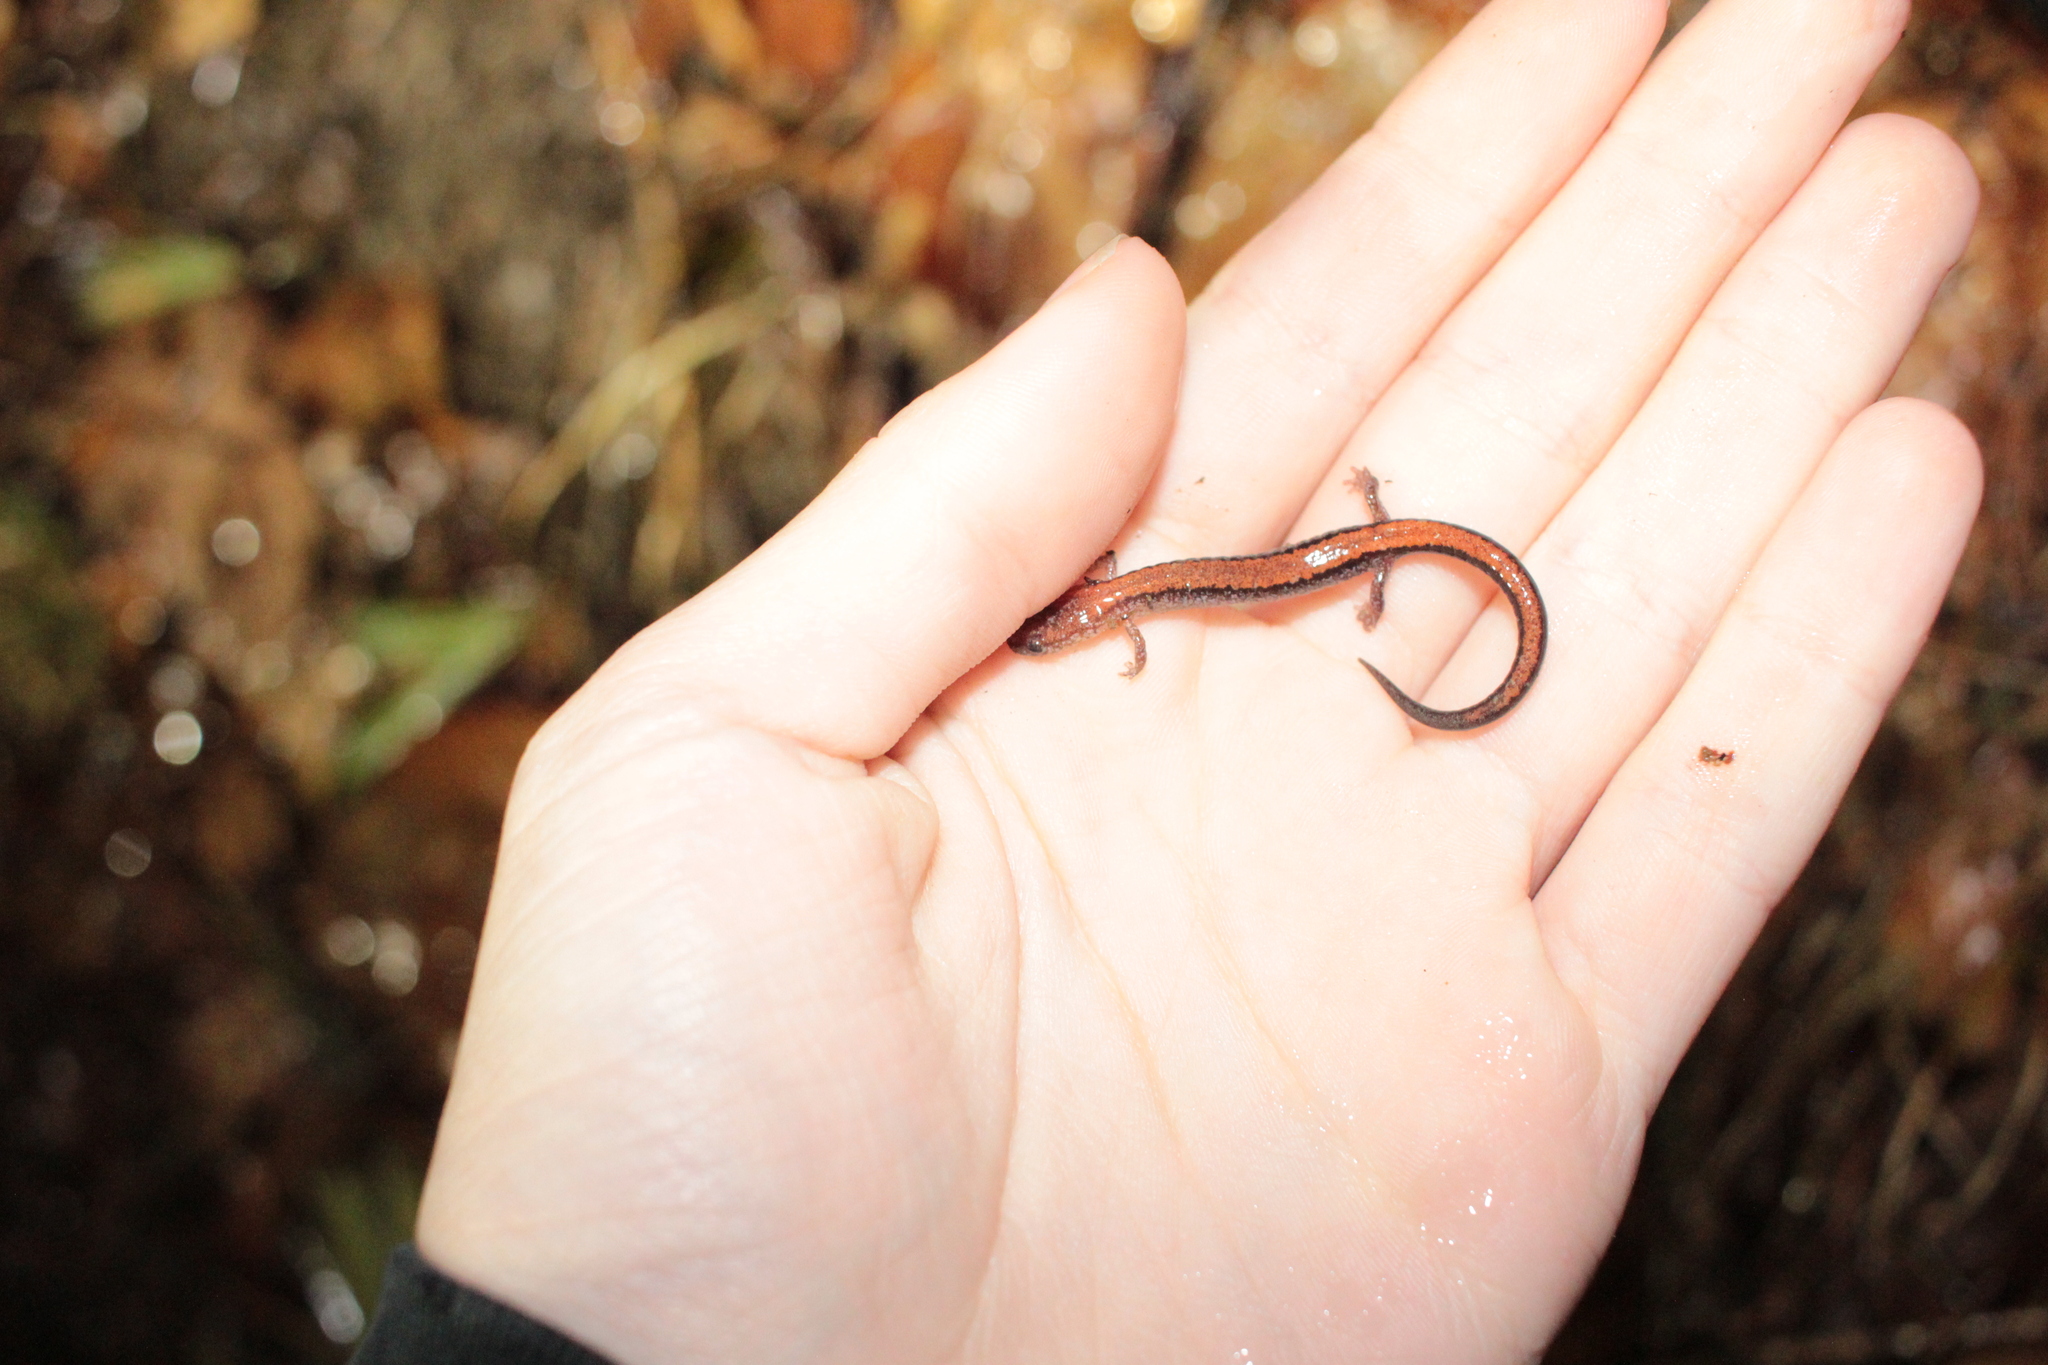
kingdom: Animalia
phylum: Chordata
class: Amphibia
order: Caudata
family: Plethodontidae
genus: Plethodon
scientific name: Plethodon cinereus
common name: Redback salamander
